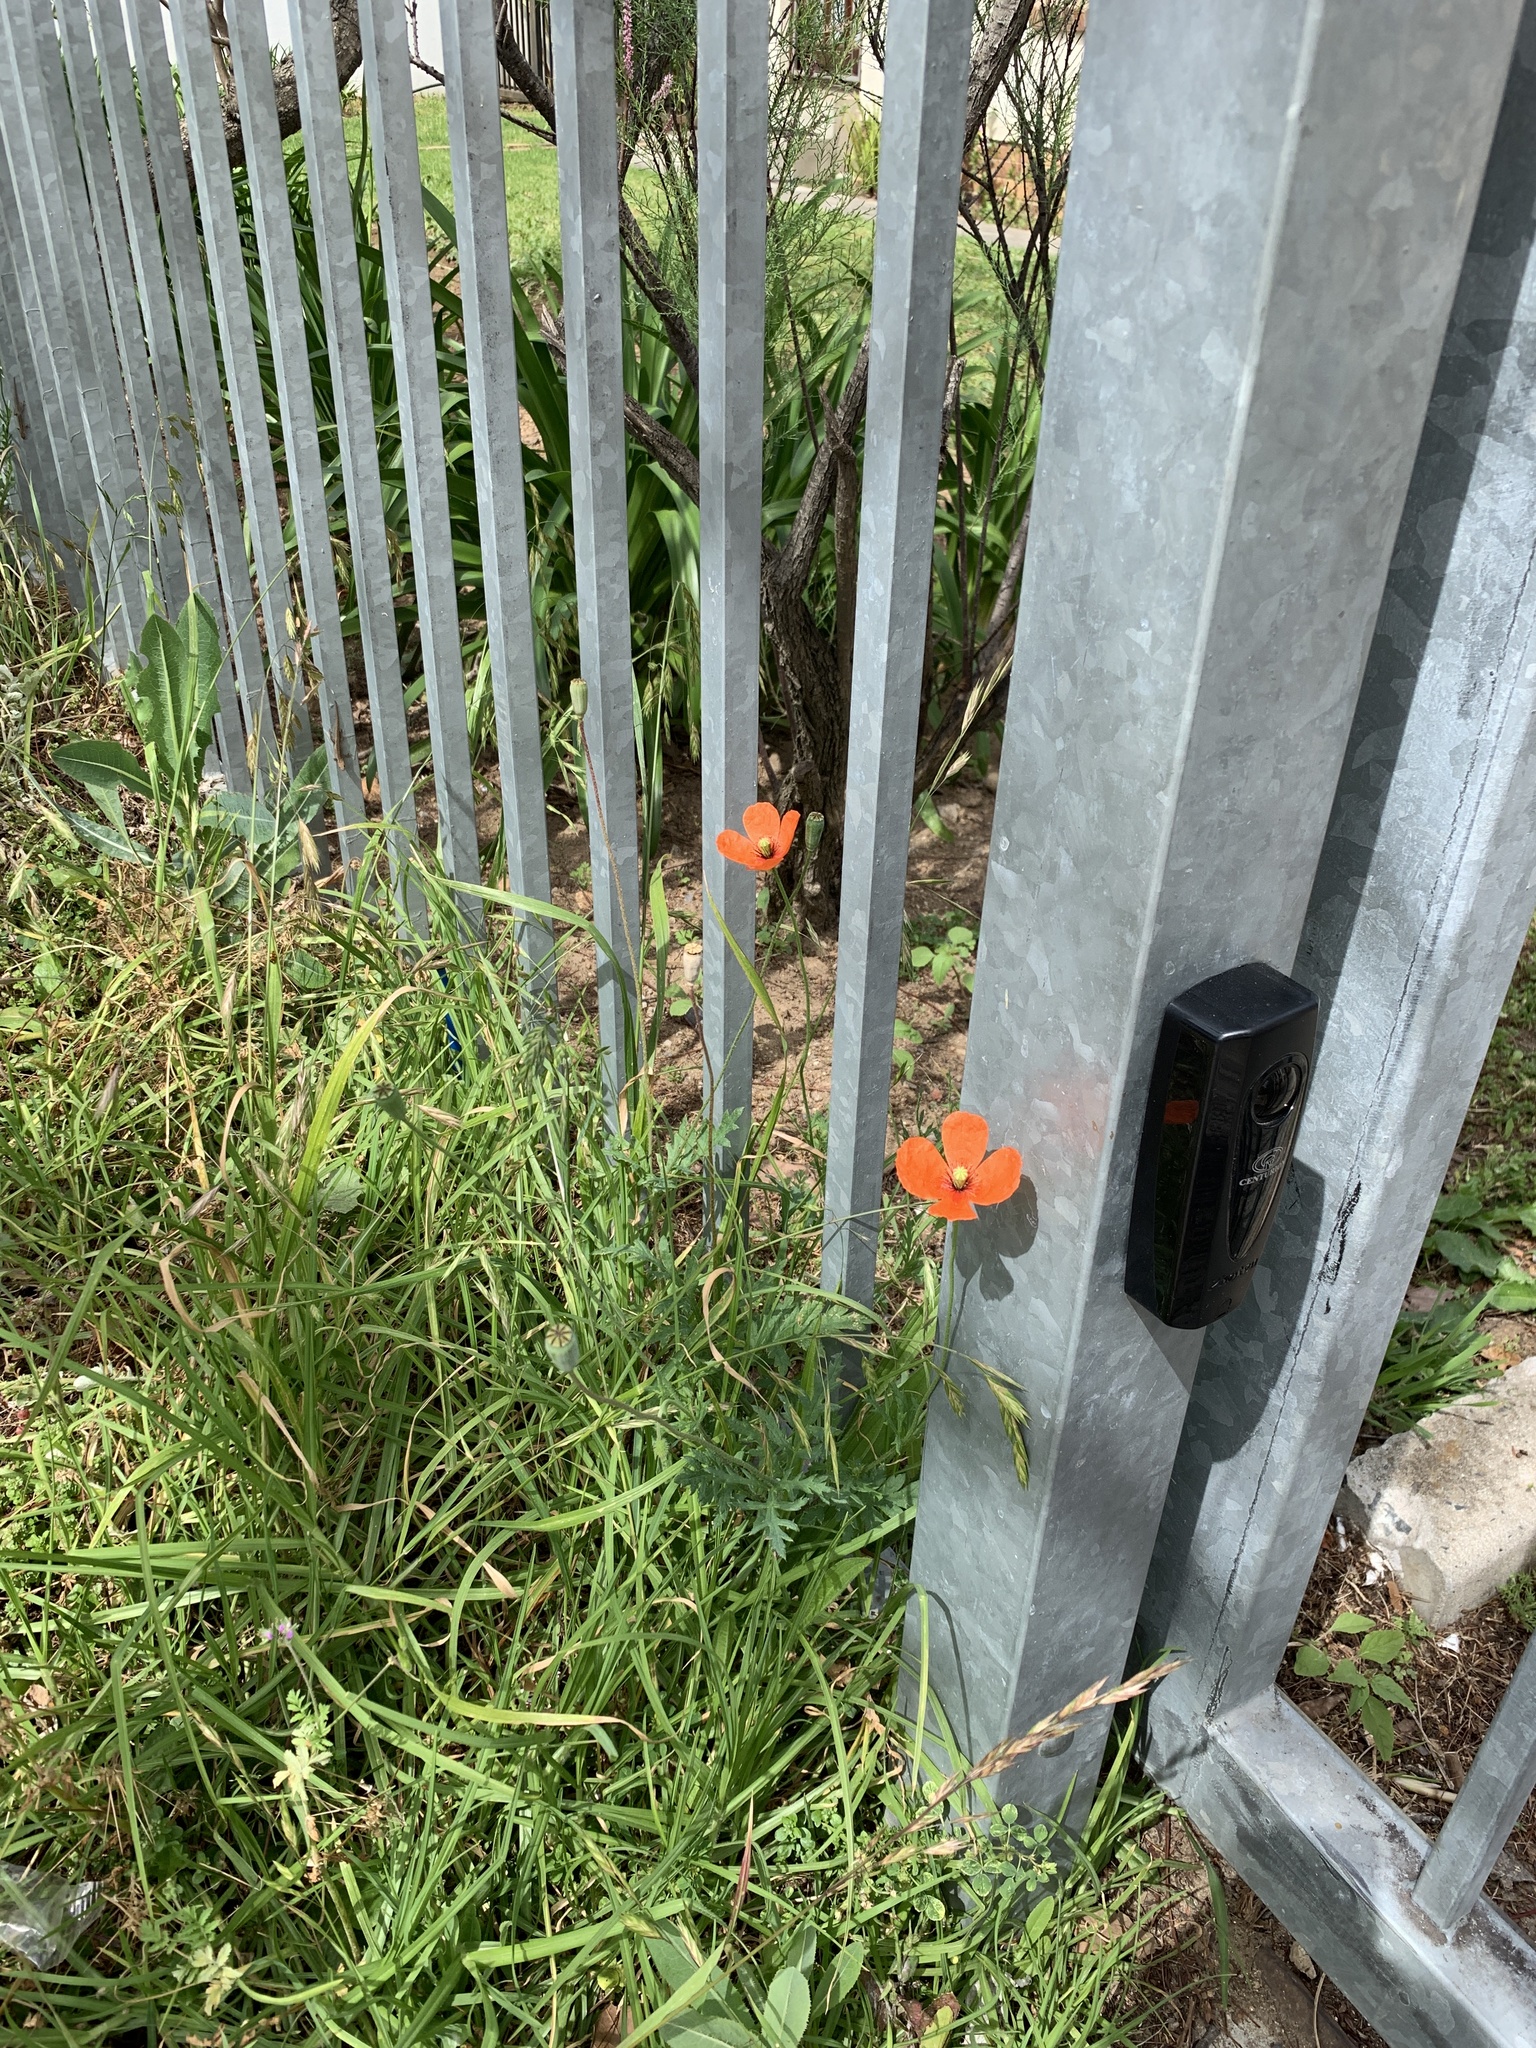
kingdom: Plantae
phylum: Tracheophyta
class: Magnoliopsida
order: Ranunculales
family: Papaveraceae
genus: Papaver
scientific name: Papaver dubium
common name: Long-headed poppy
